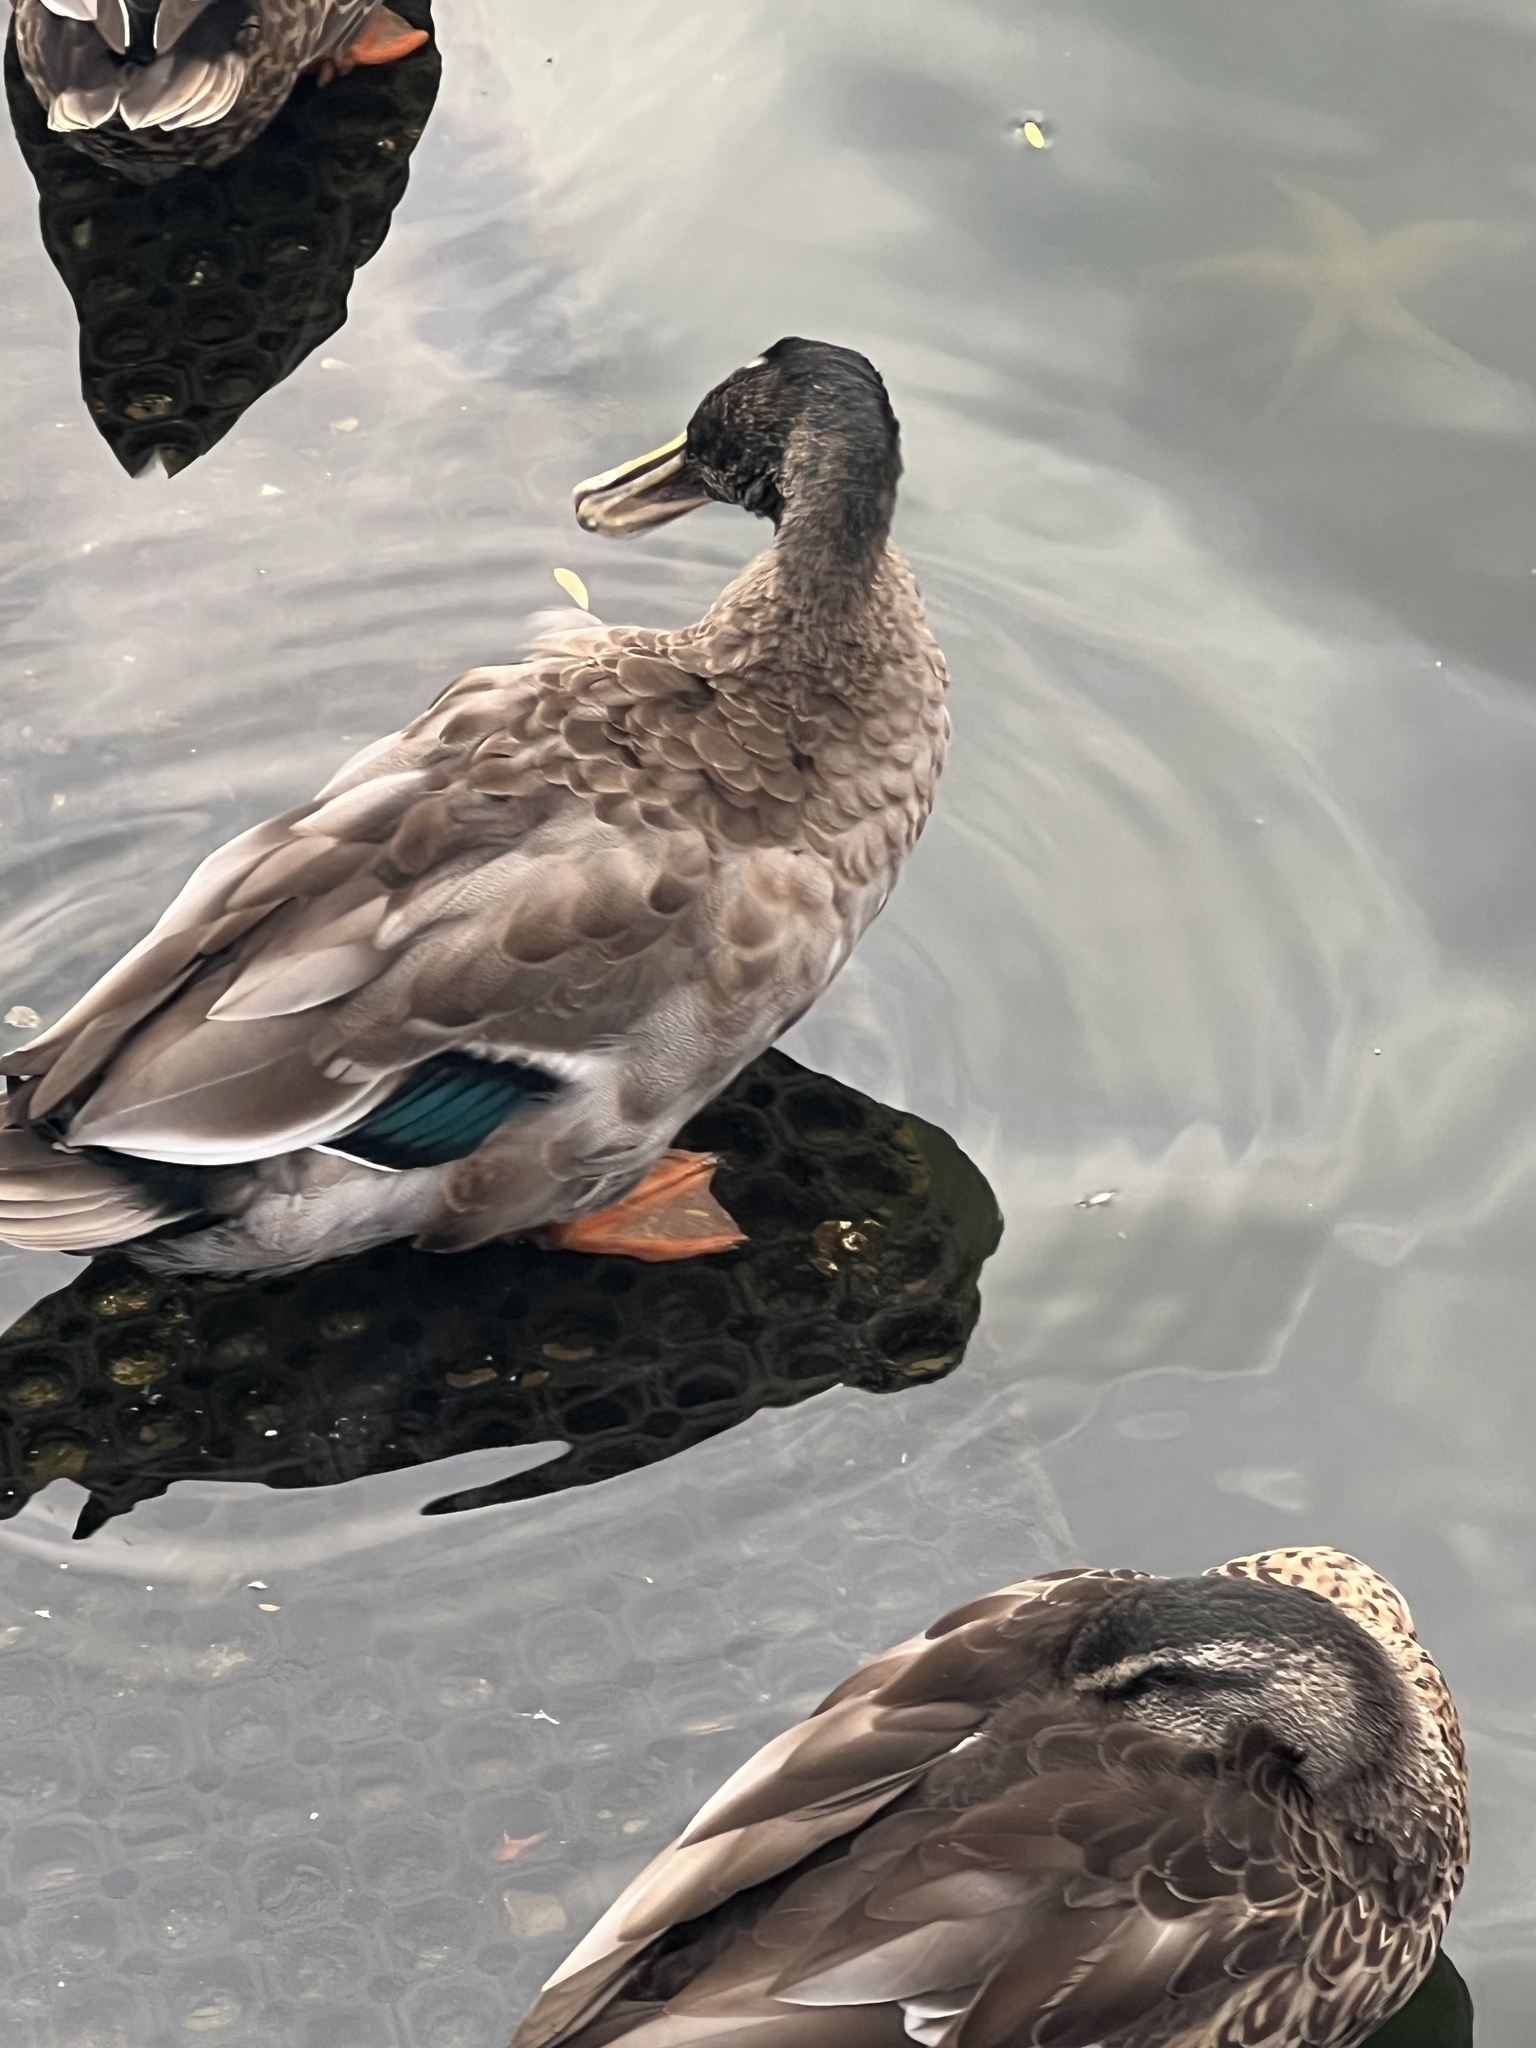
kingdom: Animalia
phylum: Chordata
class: Aves
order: Anseriformes
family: Anatidae
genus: Anas
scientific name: Anas
